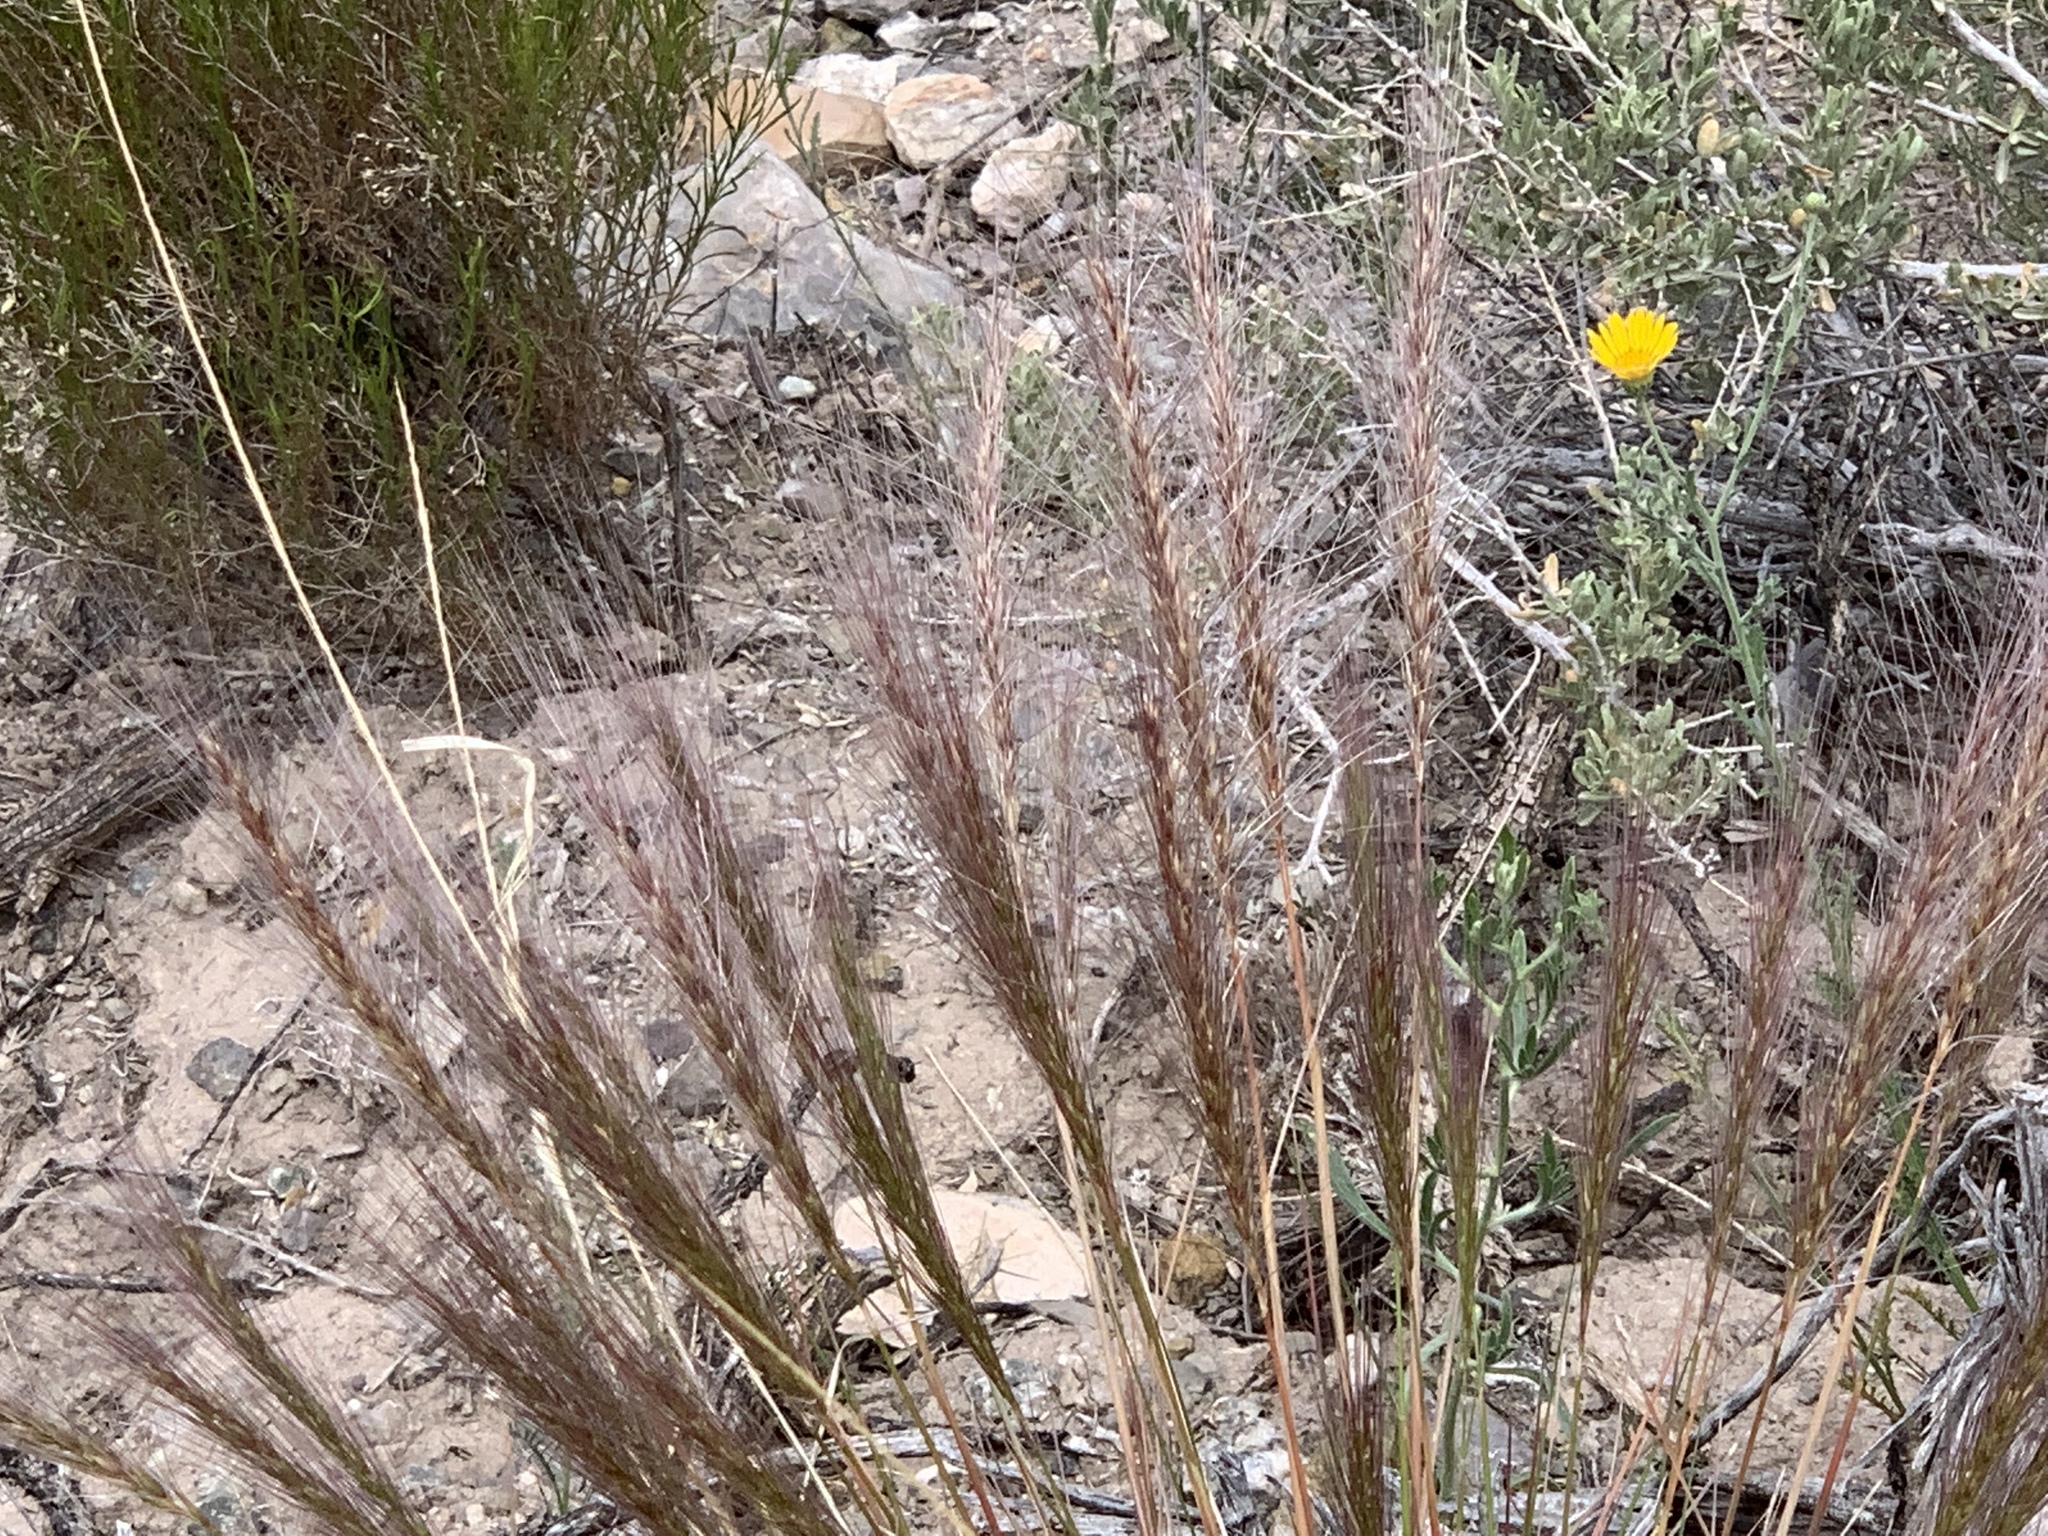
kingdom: Plantae
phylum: Tracheophyta
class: Liliopsida
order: Poales
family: Poaceae
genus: Elymus
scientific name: Elymus elymoides
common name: Bottlebrush squirreltail
